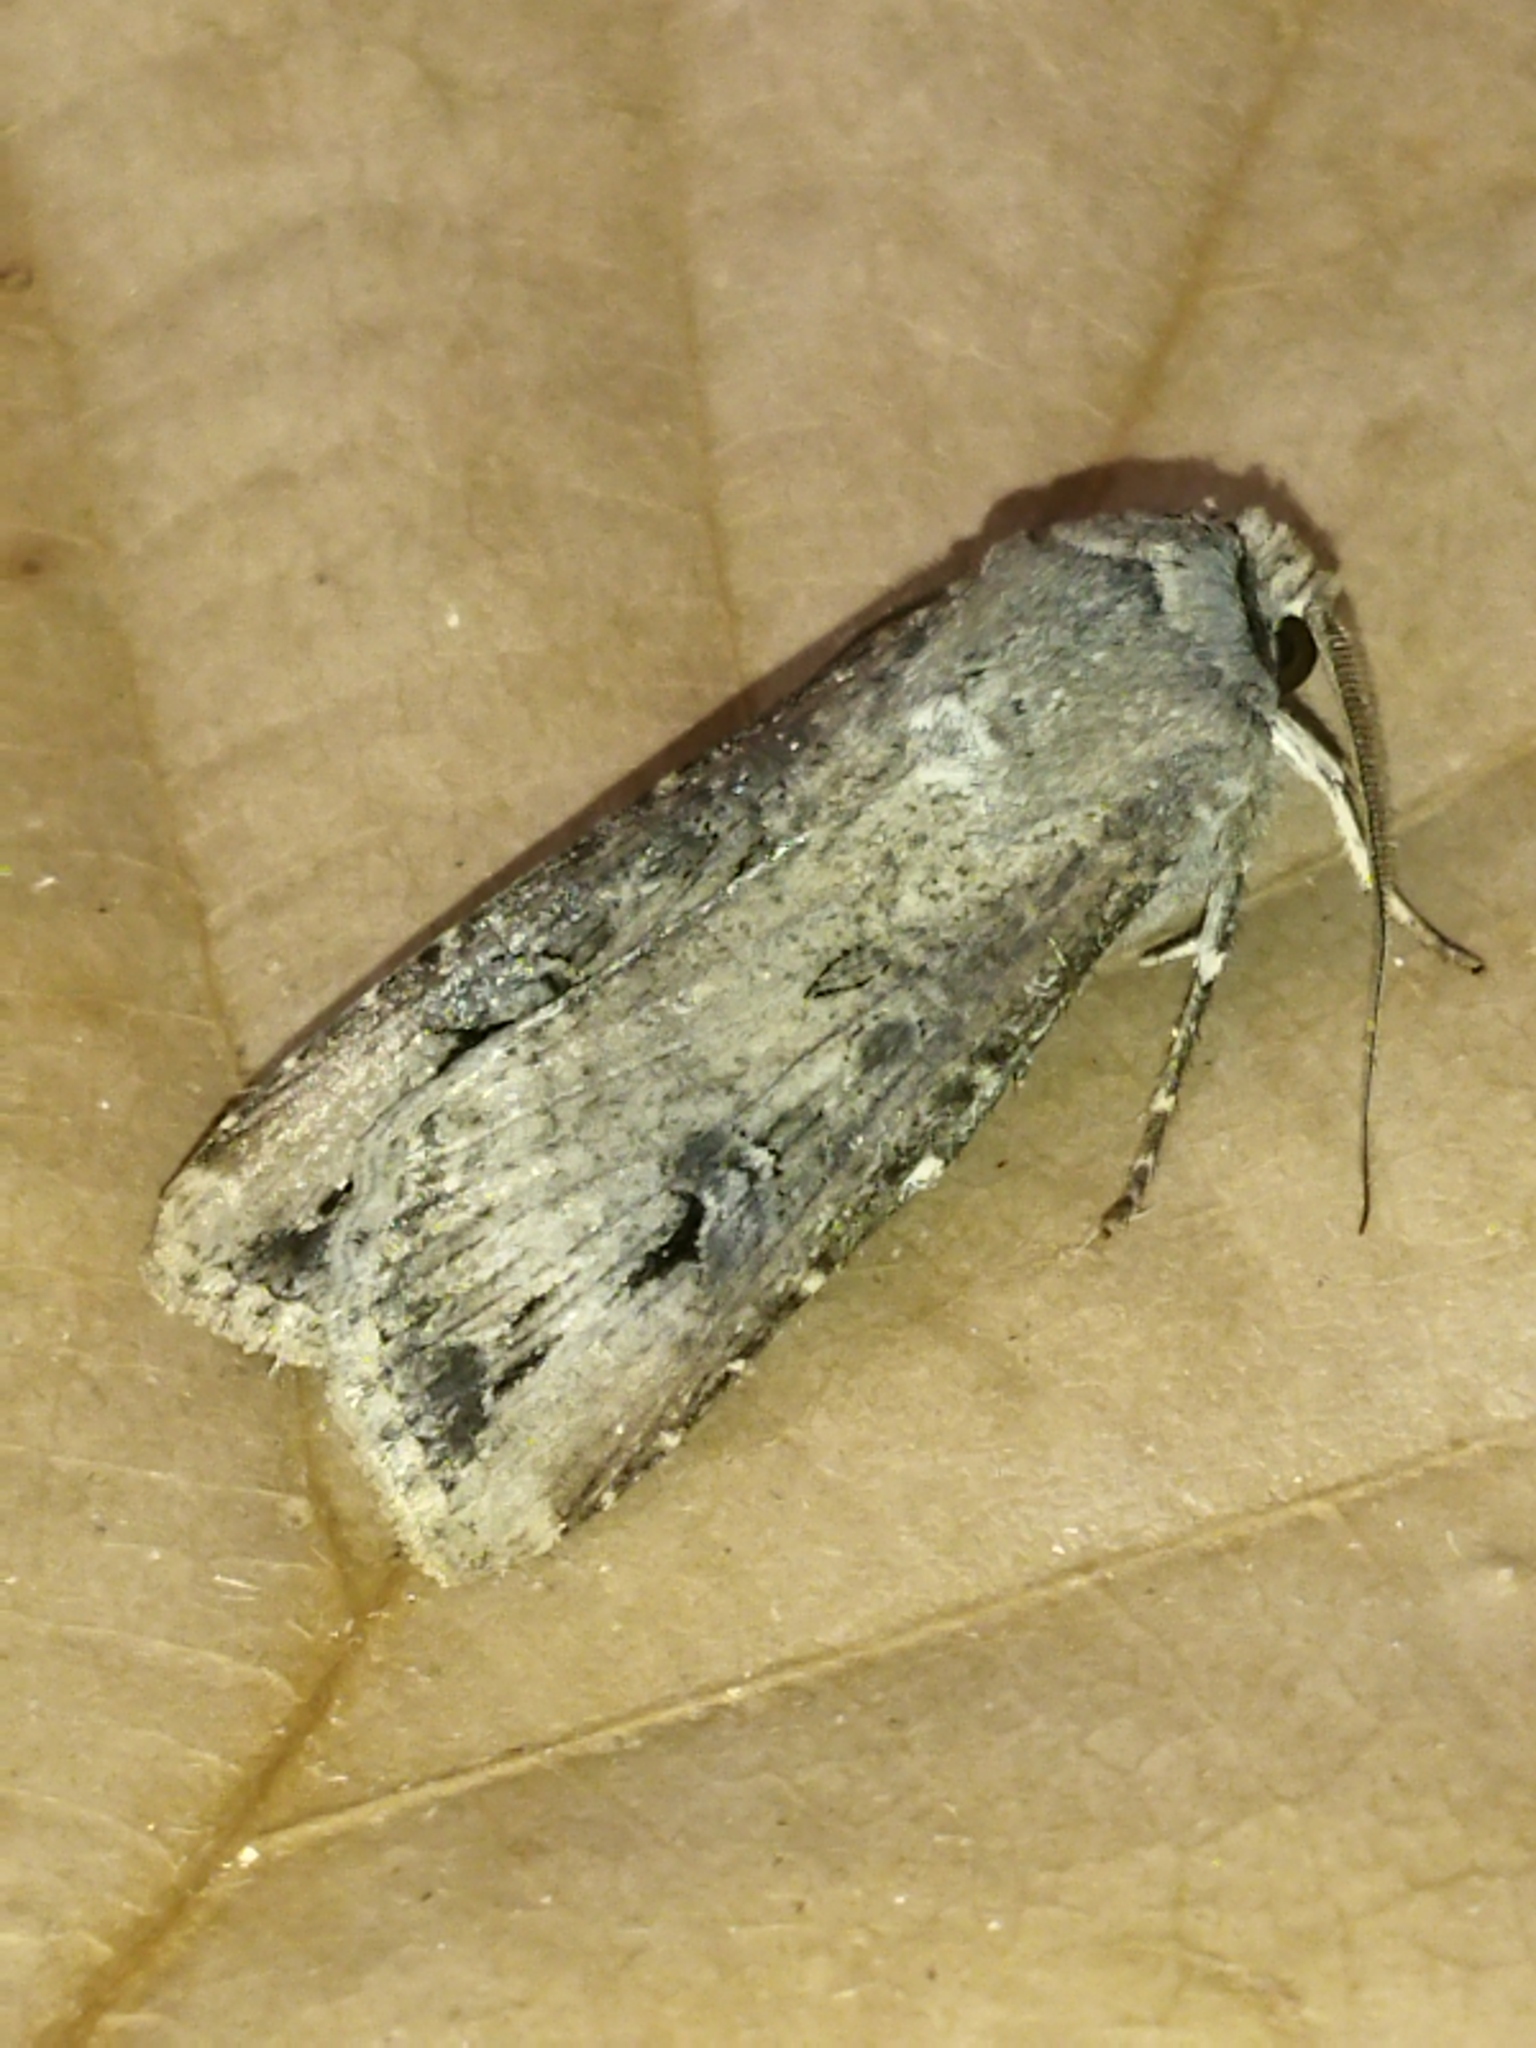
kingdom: Animalia
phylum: Arthropoda
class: Insecta
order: Lepidoptera
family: Noctuidae
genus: Agrotis
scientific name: Agrotis ipsilon
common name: Dark sword-grass
